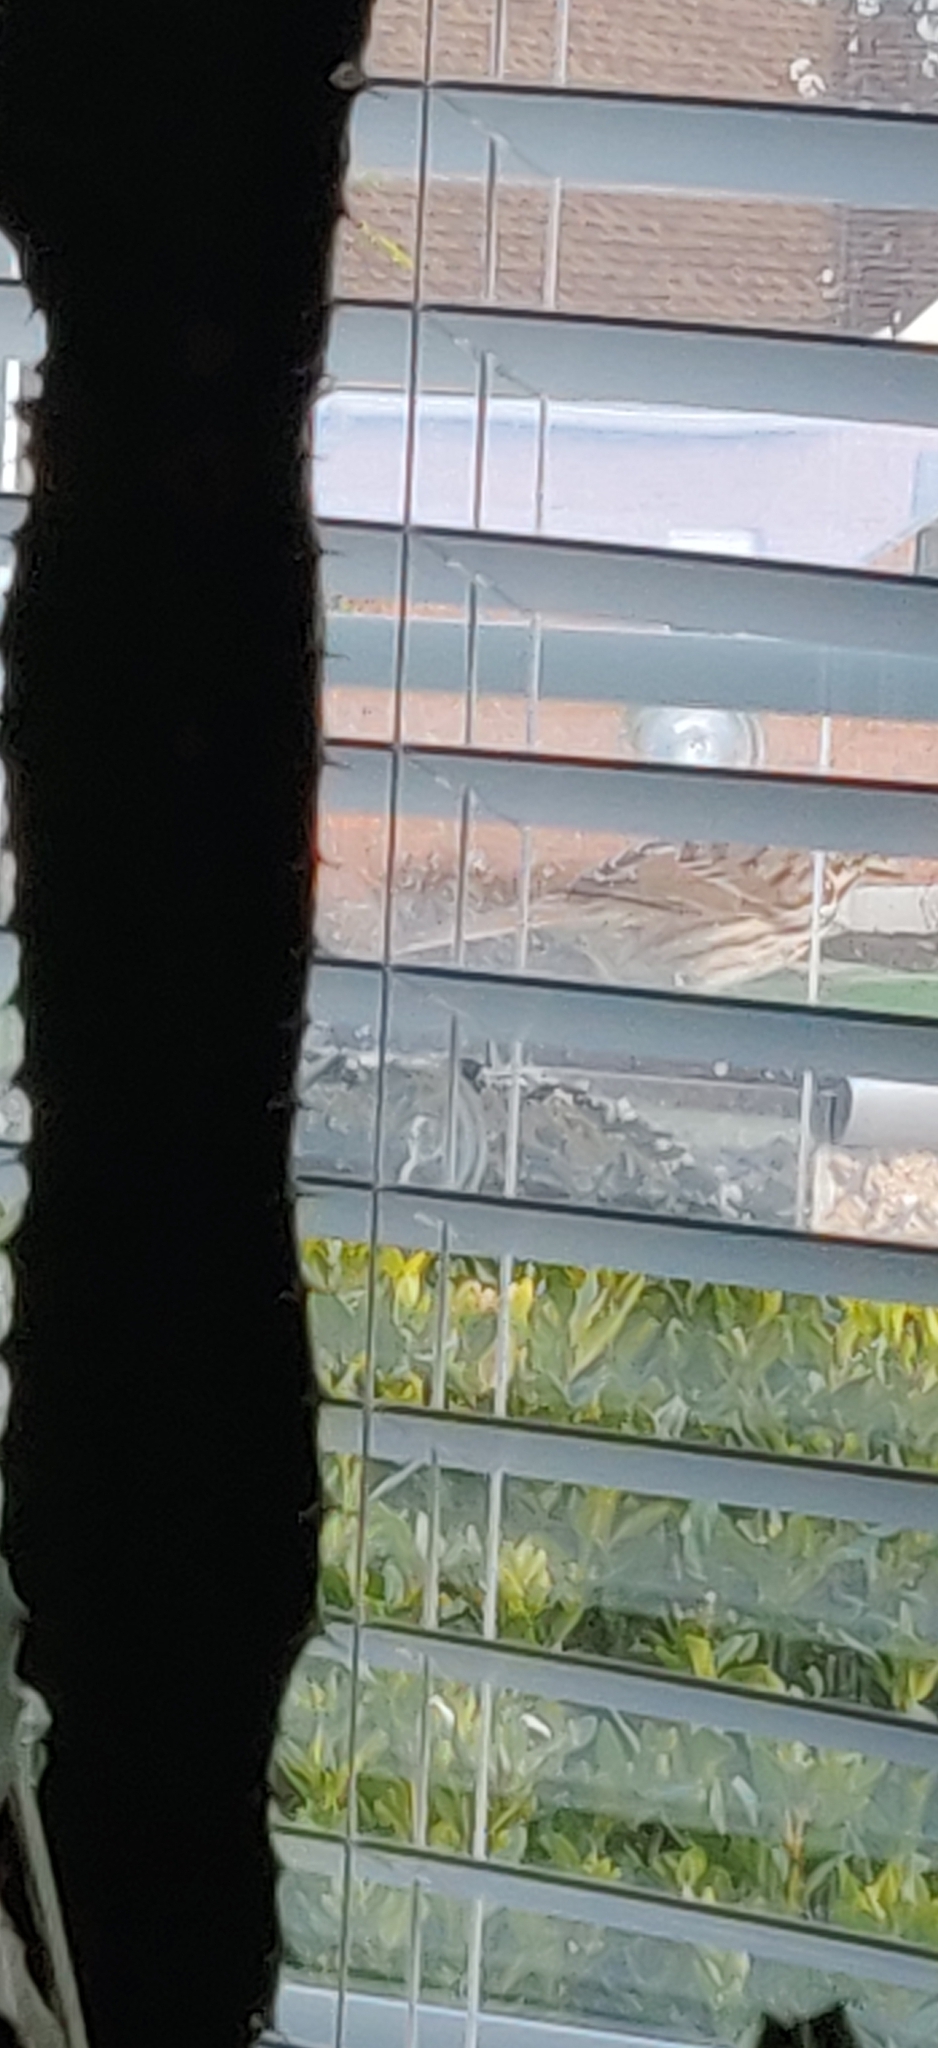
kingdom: Animalia
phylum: Chordata
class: Aves
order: Passeriformes
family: Passerellidae
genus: Melospiza
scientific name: Melospiza melodia
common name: Song sparrow
